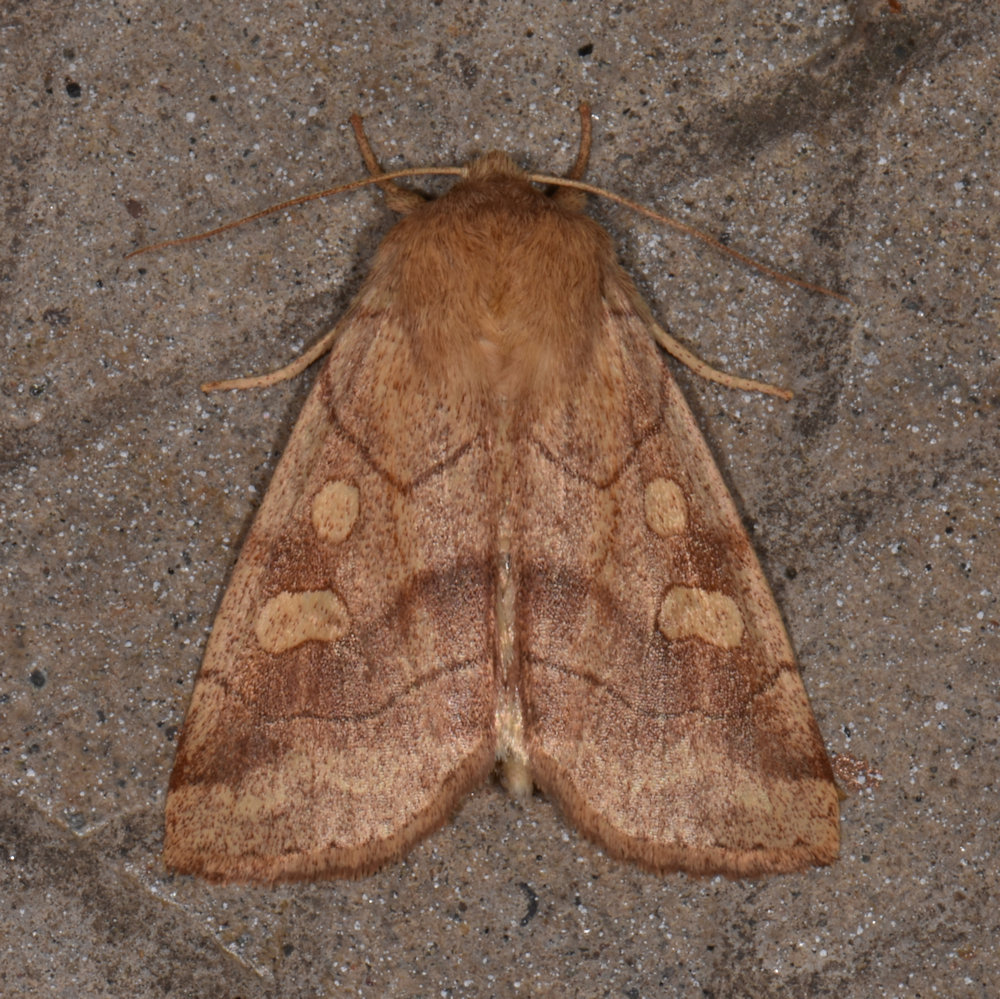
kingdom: Animalia
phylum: Arthropoda
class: Insecta
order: Lepidoptera
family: Noctuidae
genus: Enargia
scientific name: Enargia decolor
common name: Aspen twoleaf tier moth
